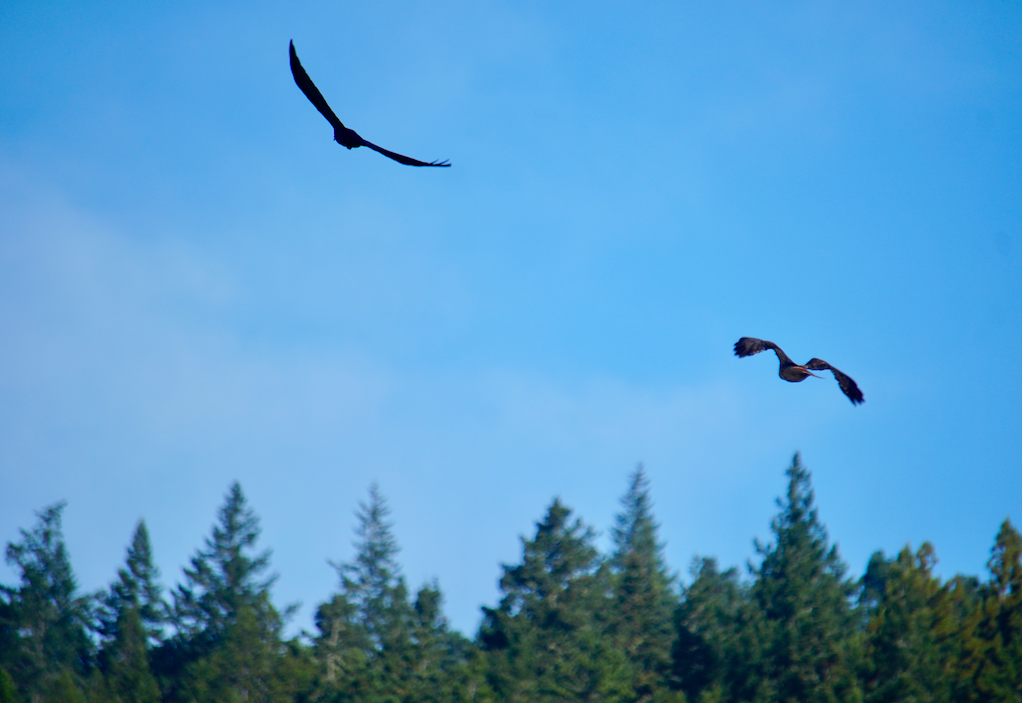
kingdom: Animalia
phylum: Chordata
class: Aves
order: Accipitriformes
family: Accipitridae
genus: Buteo
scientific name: Buteo jamaicensis
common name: Red-tailed hawk
